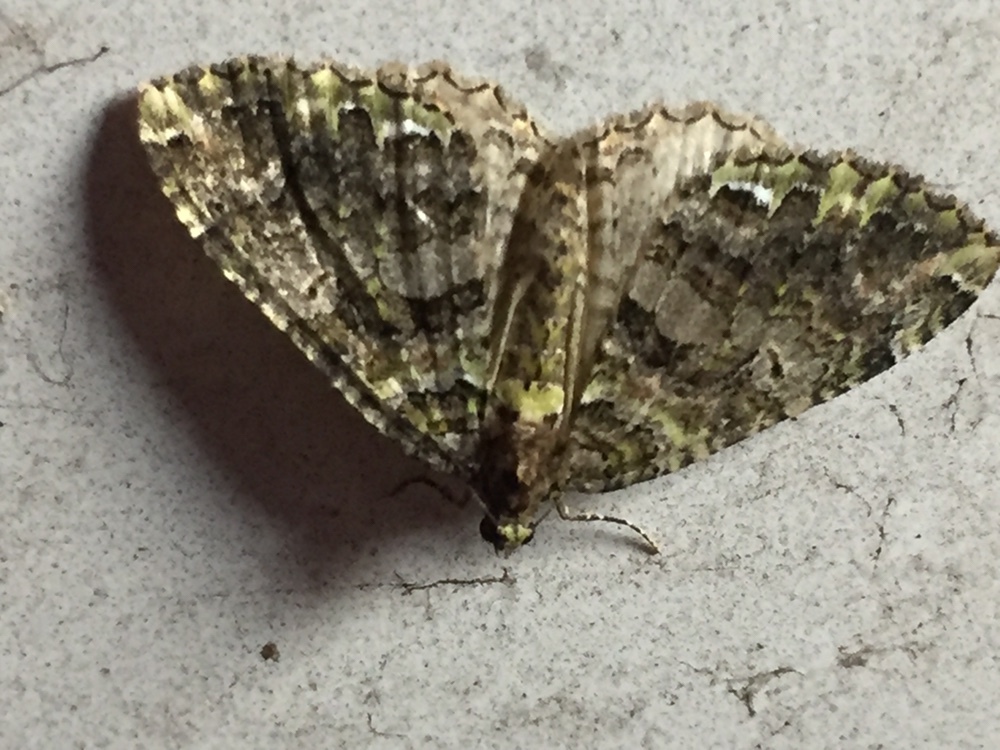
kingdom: Animalia
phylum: Arthropoda
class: Insecta
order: Lepidoptera
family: Geometridae
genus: Austrocidaria
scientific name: Austrocidaria similata
